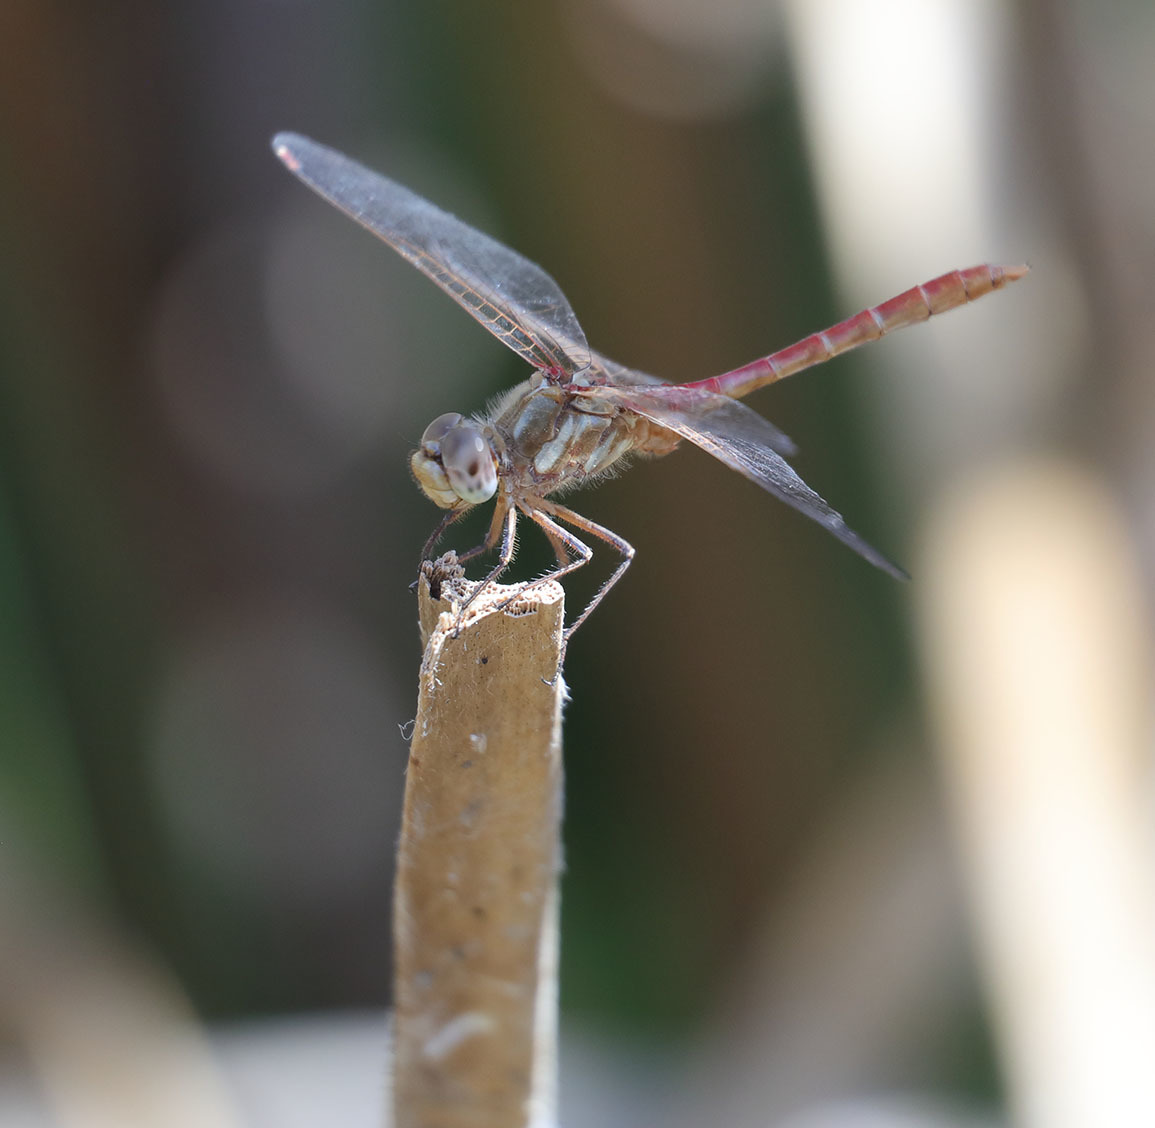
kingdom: Animalia
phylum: Arthropoda
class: Insecta
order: Odonata
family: Libellulidae
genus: Sympetrum
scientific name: Sympetrum pallipes
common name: Striped meadowhawk
